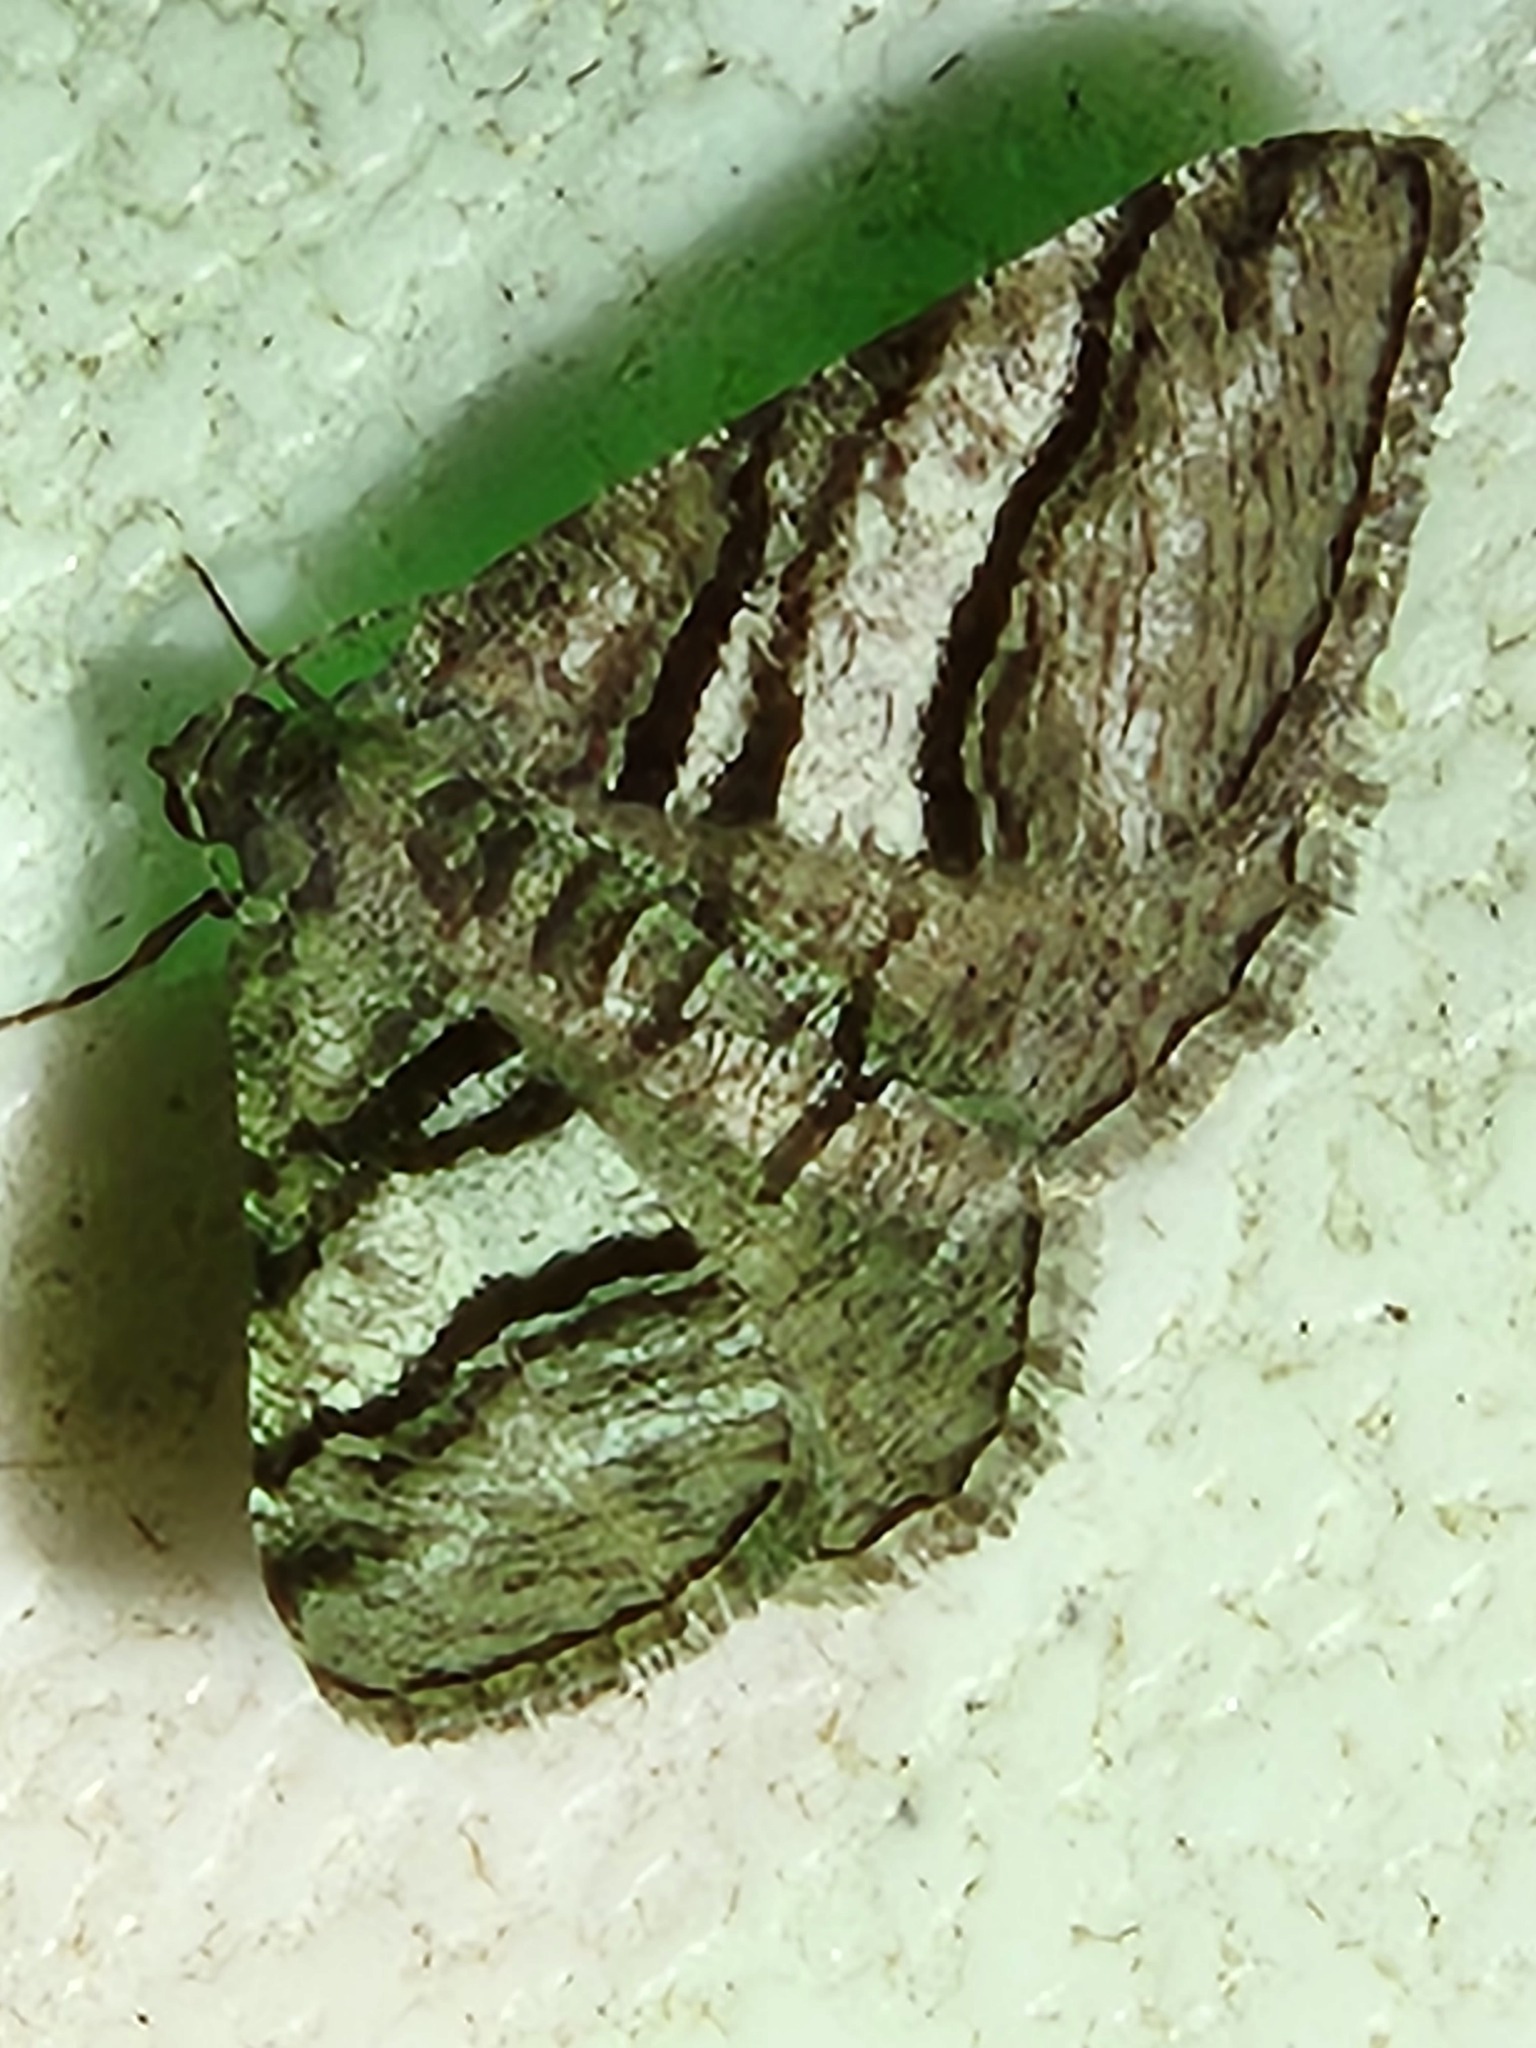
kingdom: Animalia
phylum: Arthropoda
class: Insecta
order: Lepidoptera
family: Geometridae
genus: Digrammia
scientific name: Digrammia atrofasciata
